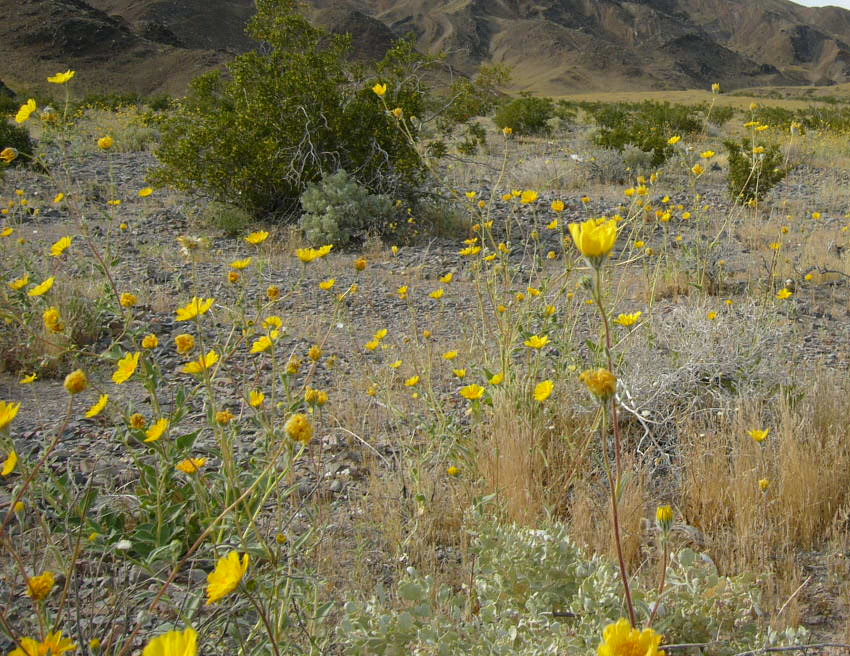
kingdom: Plantae
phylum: Tracheophyta
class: Magnoliopsida
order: Asterales
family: Asteraceae
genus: Geraea
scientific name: Geraea canescens
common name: Desert-gold
